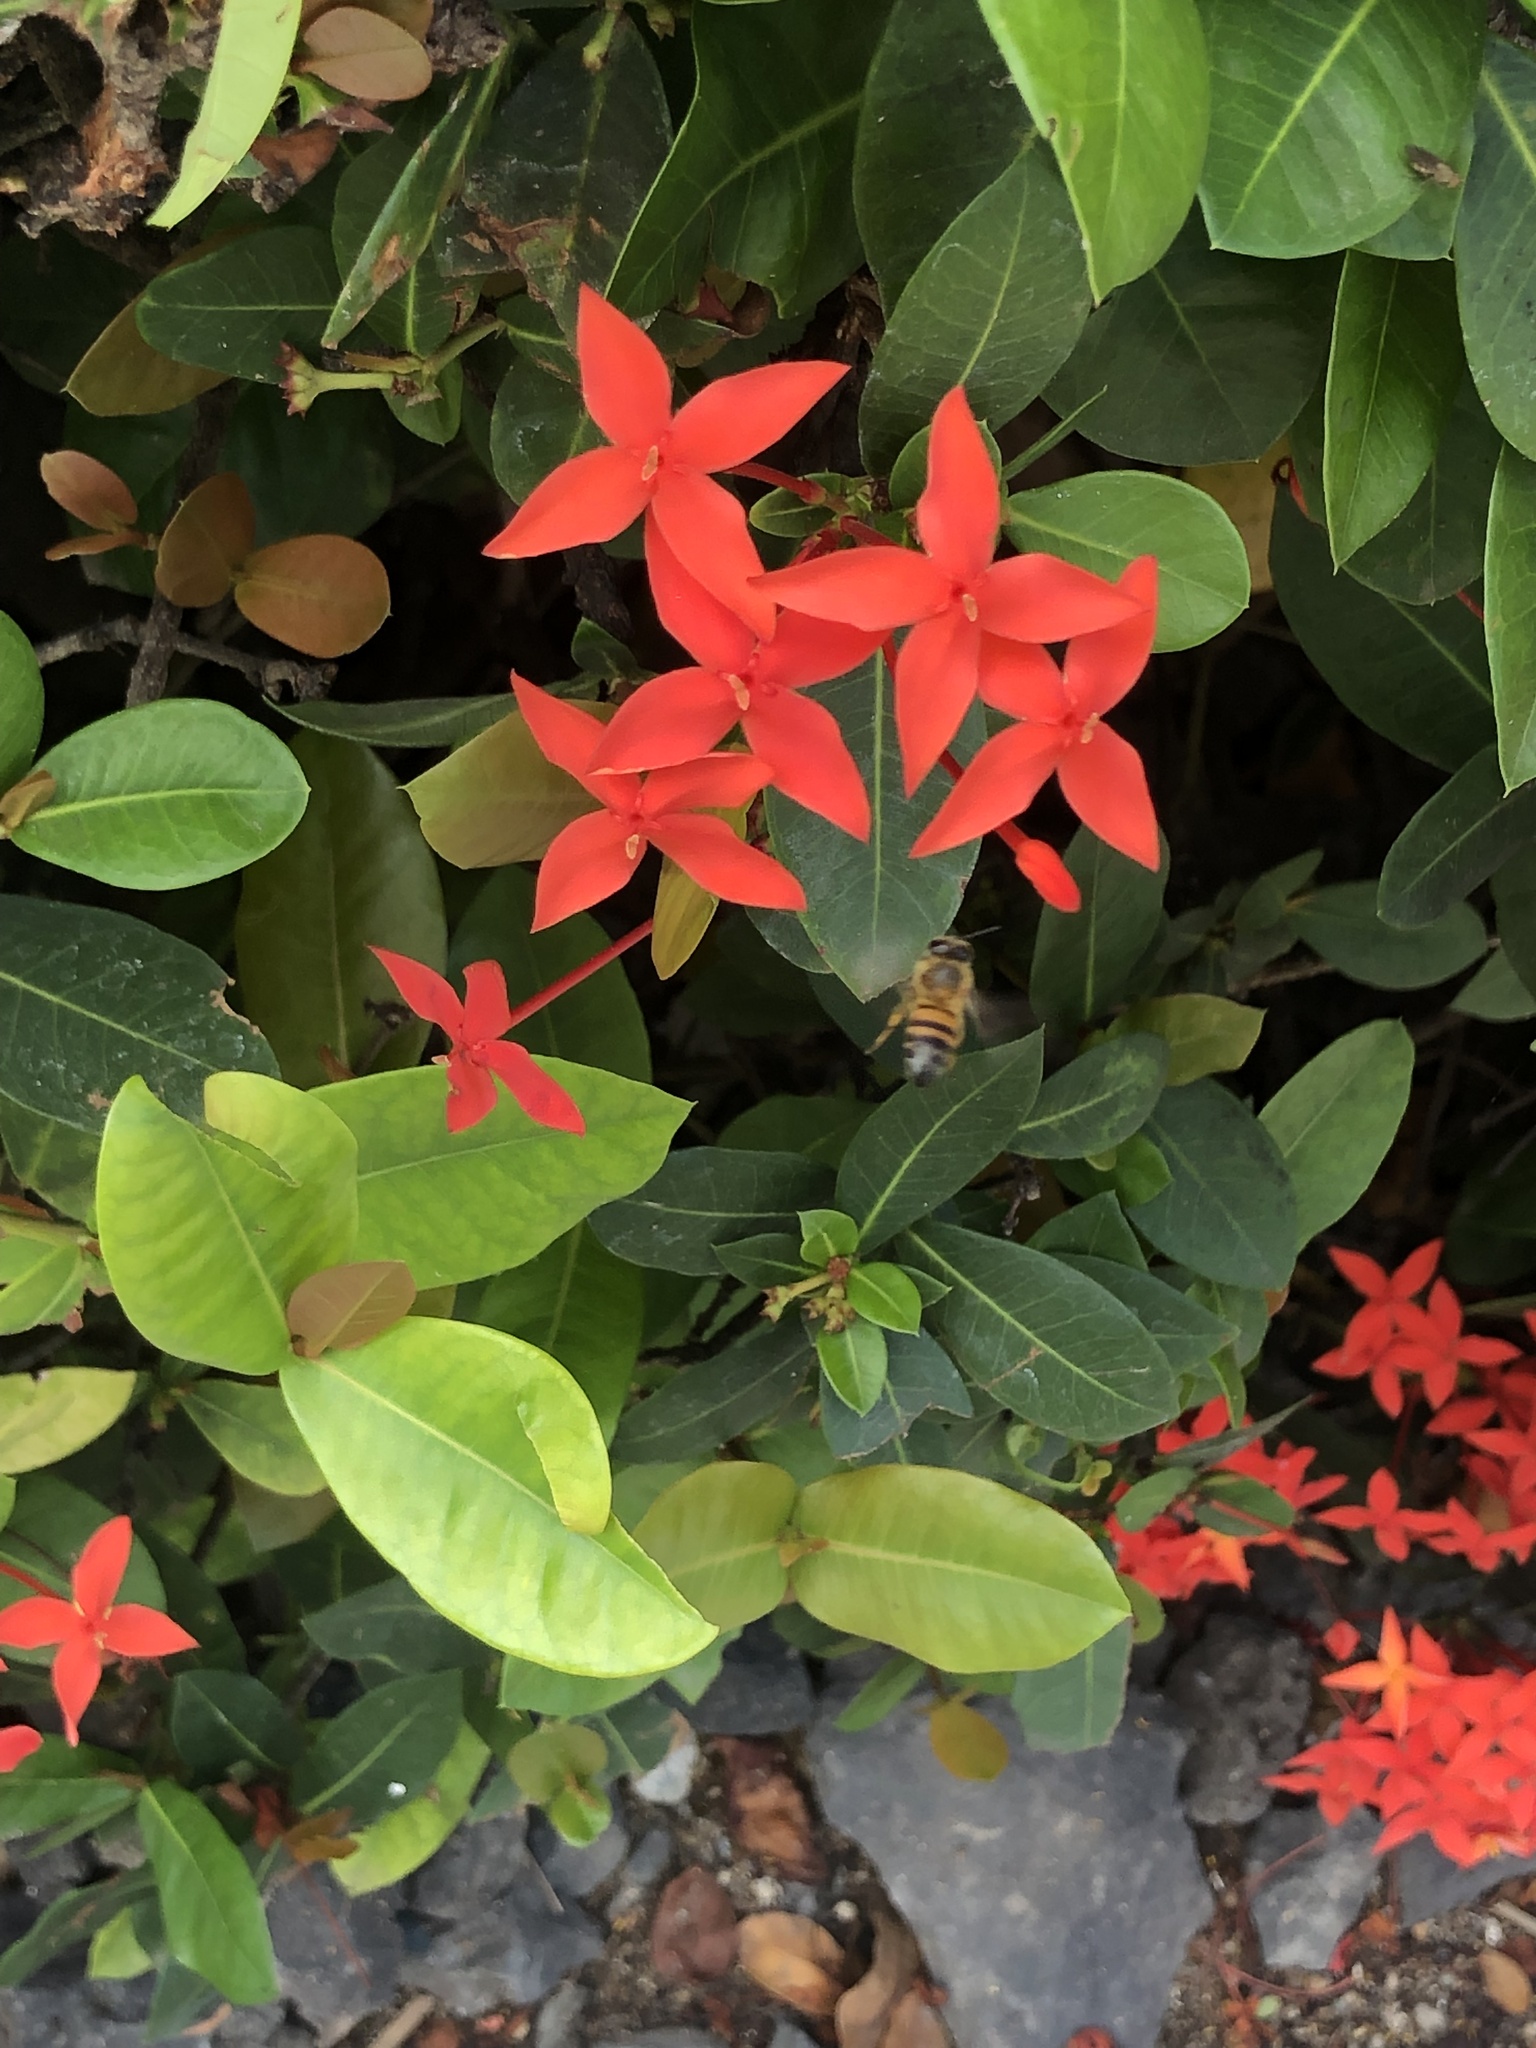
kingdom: Animalia
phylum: Arthropoda
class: Insecta
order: Hymenoptera
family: Apidae
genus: Apis
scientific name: Apis mellifera
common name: Honey bee
